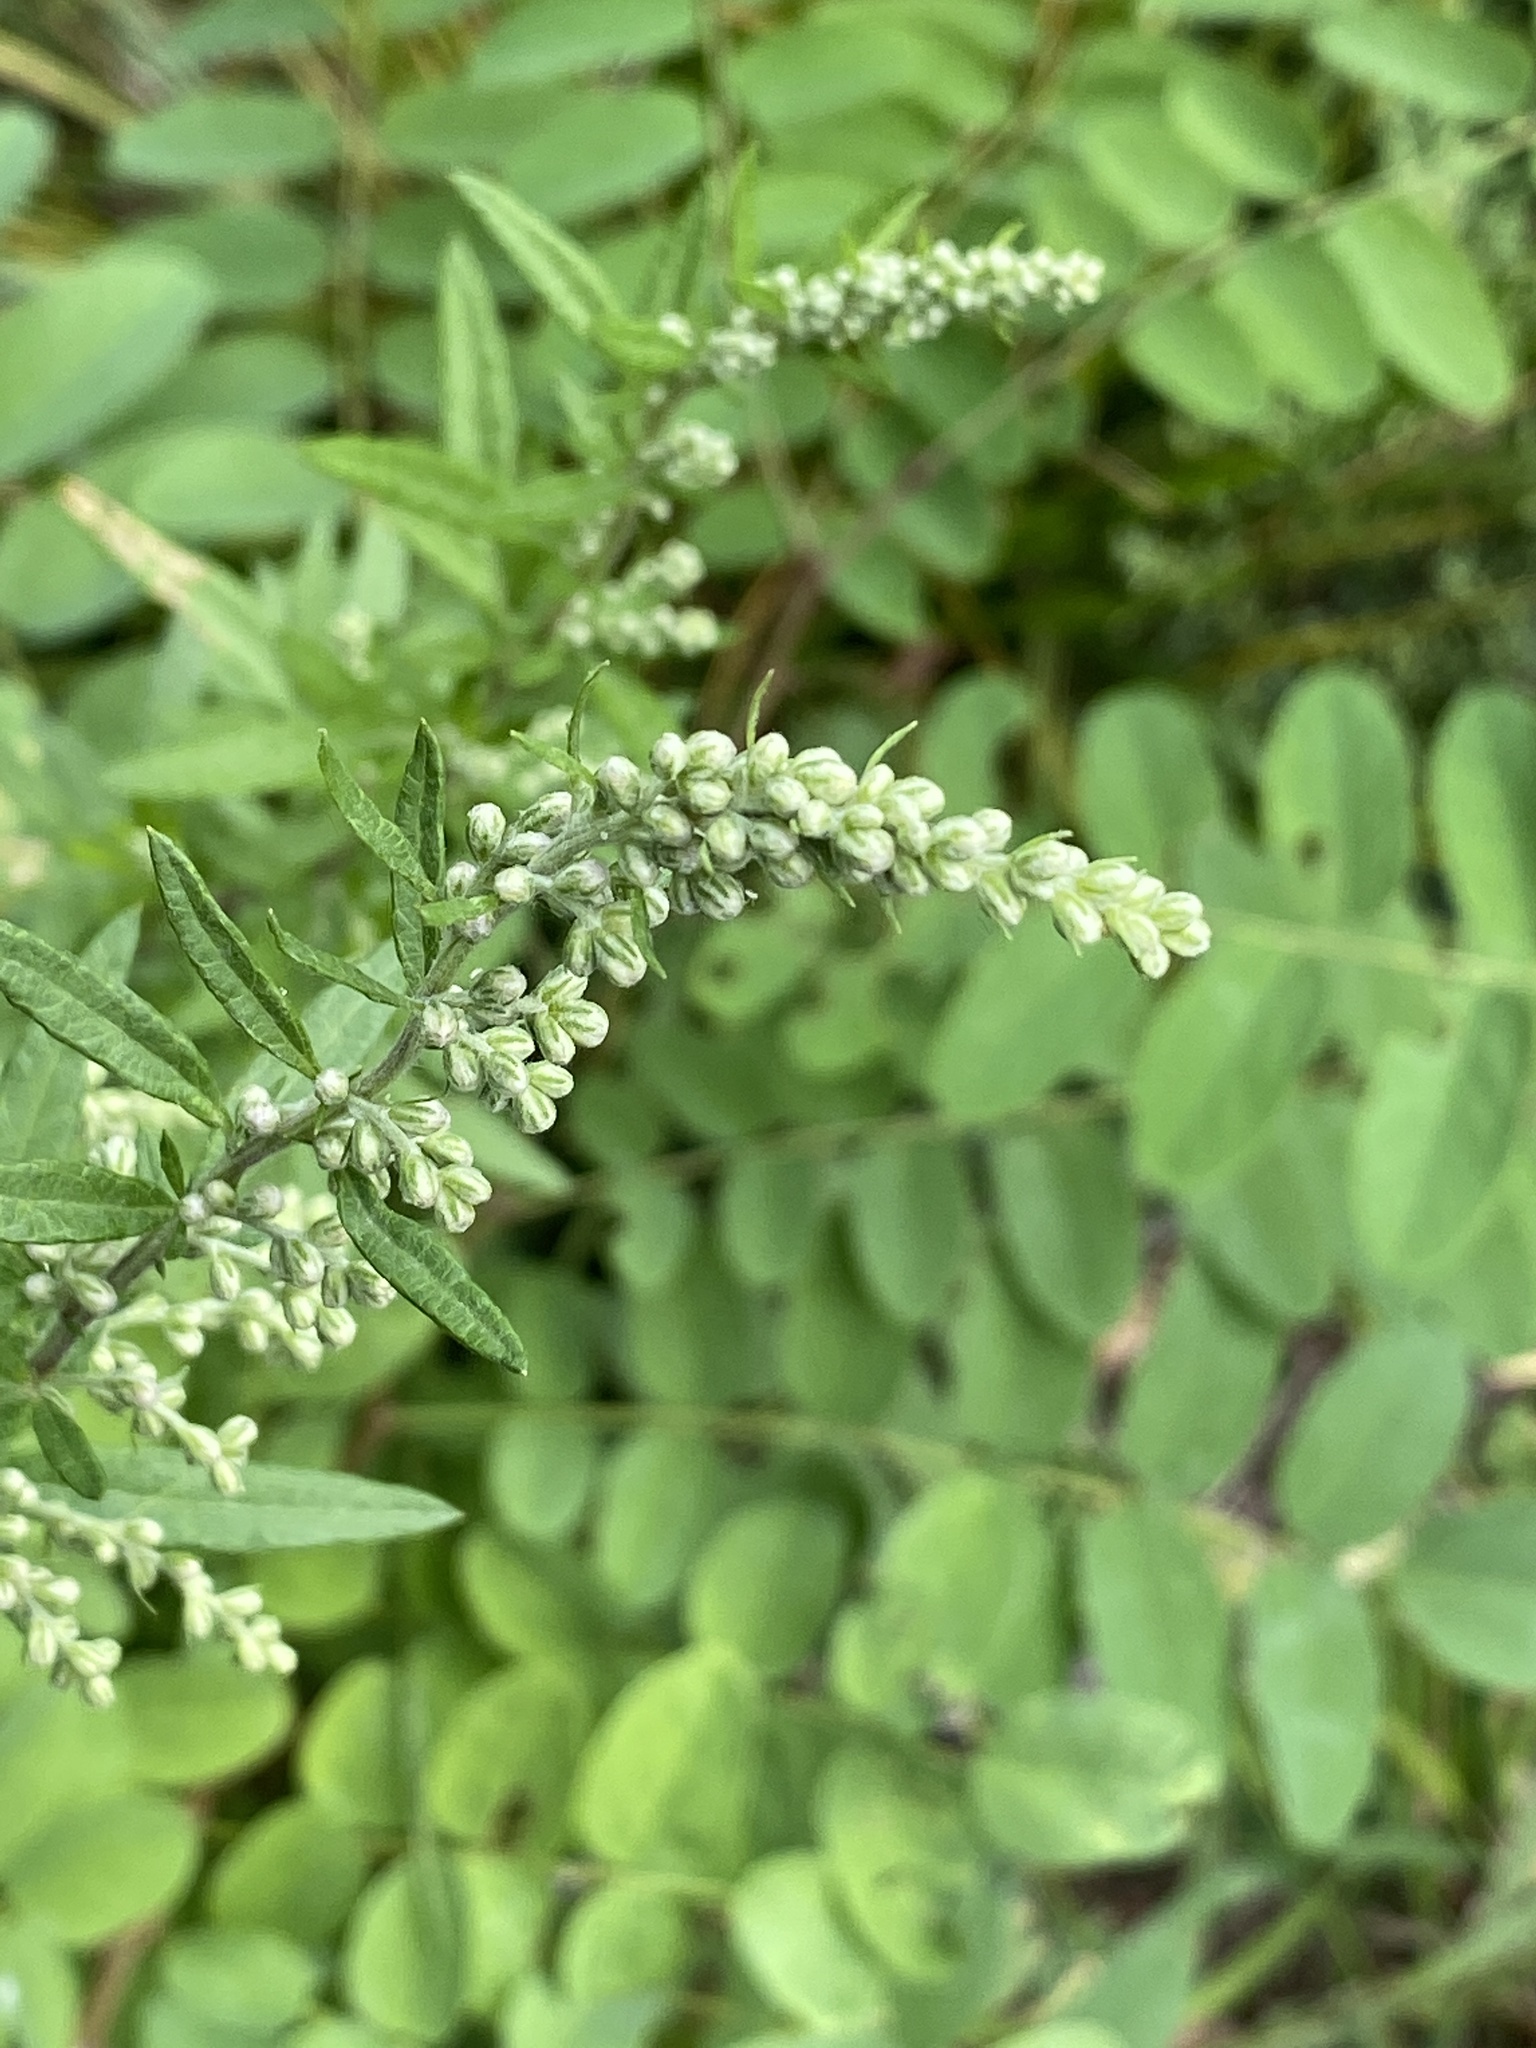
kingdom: Plantae
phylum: Tracheophyta
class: Magnoliopsida
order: Asterales
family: Asteraceae
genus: Artemisia
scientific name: Artemisia vulgaris
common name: Mugwort
